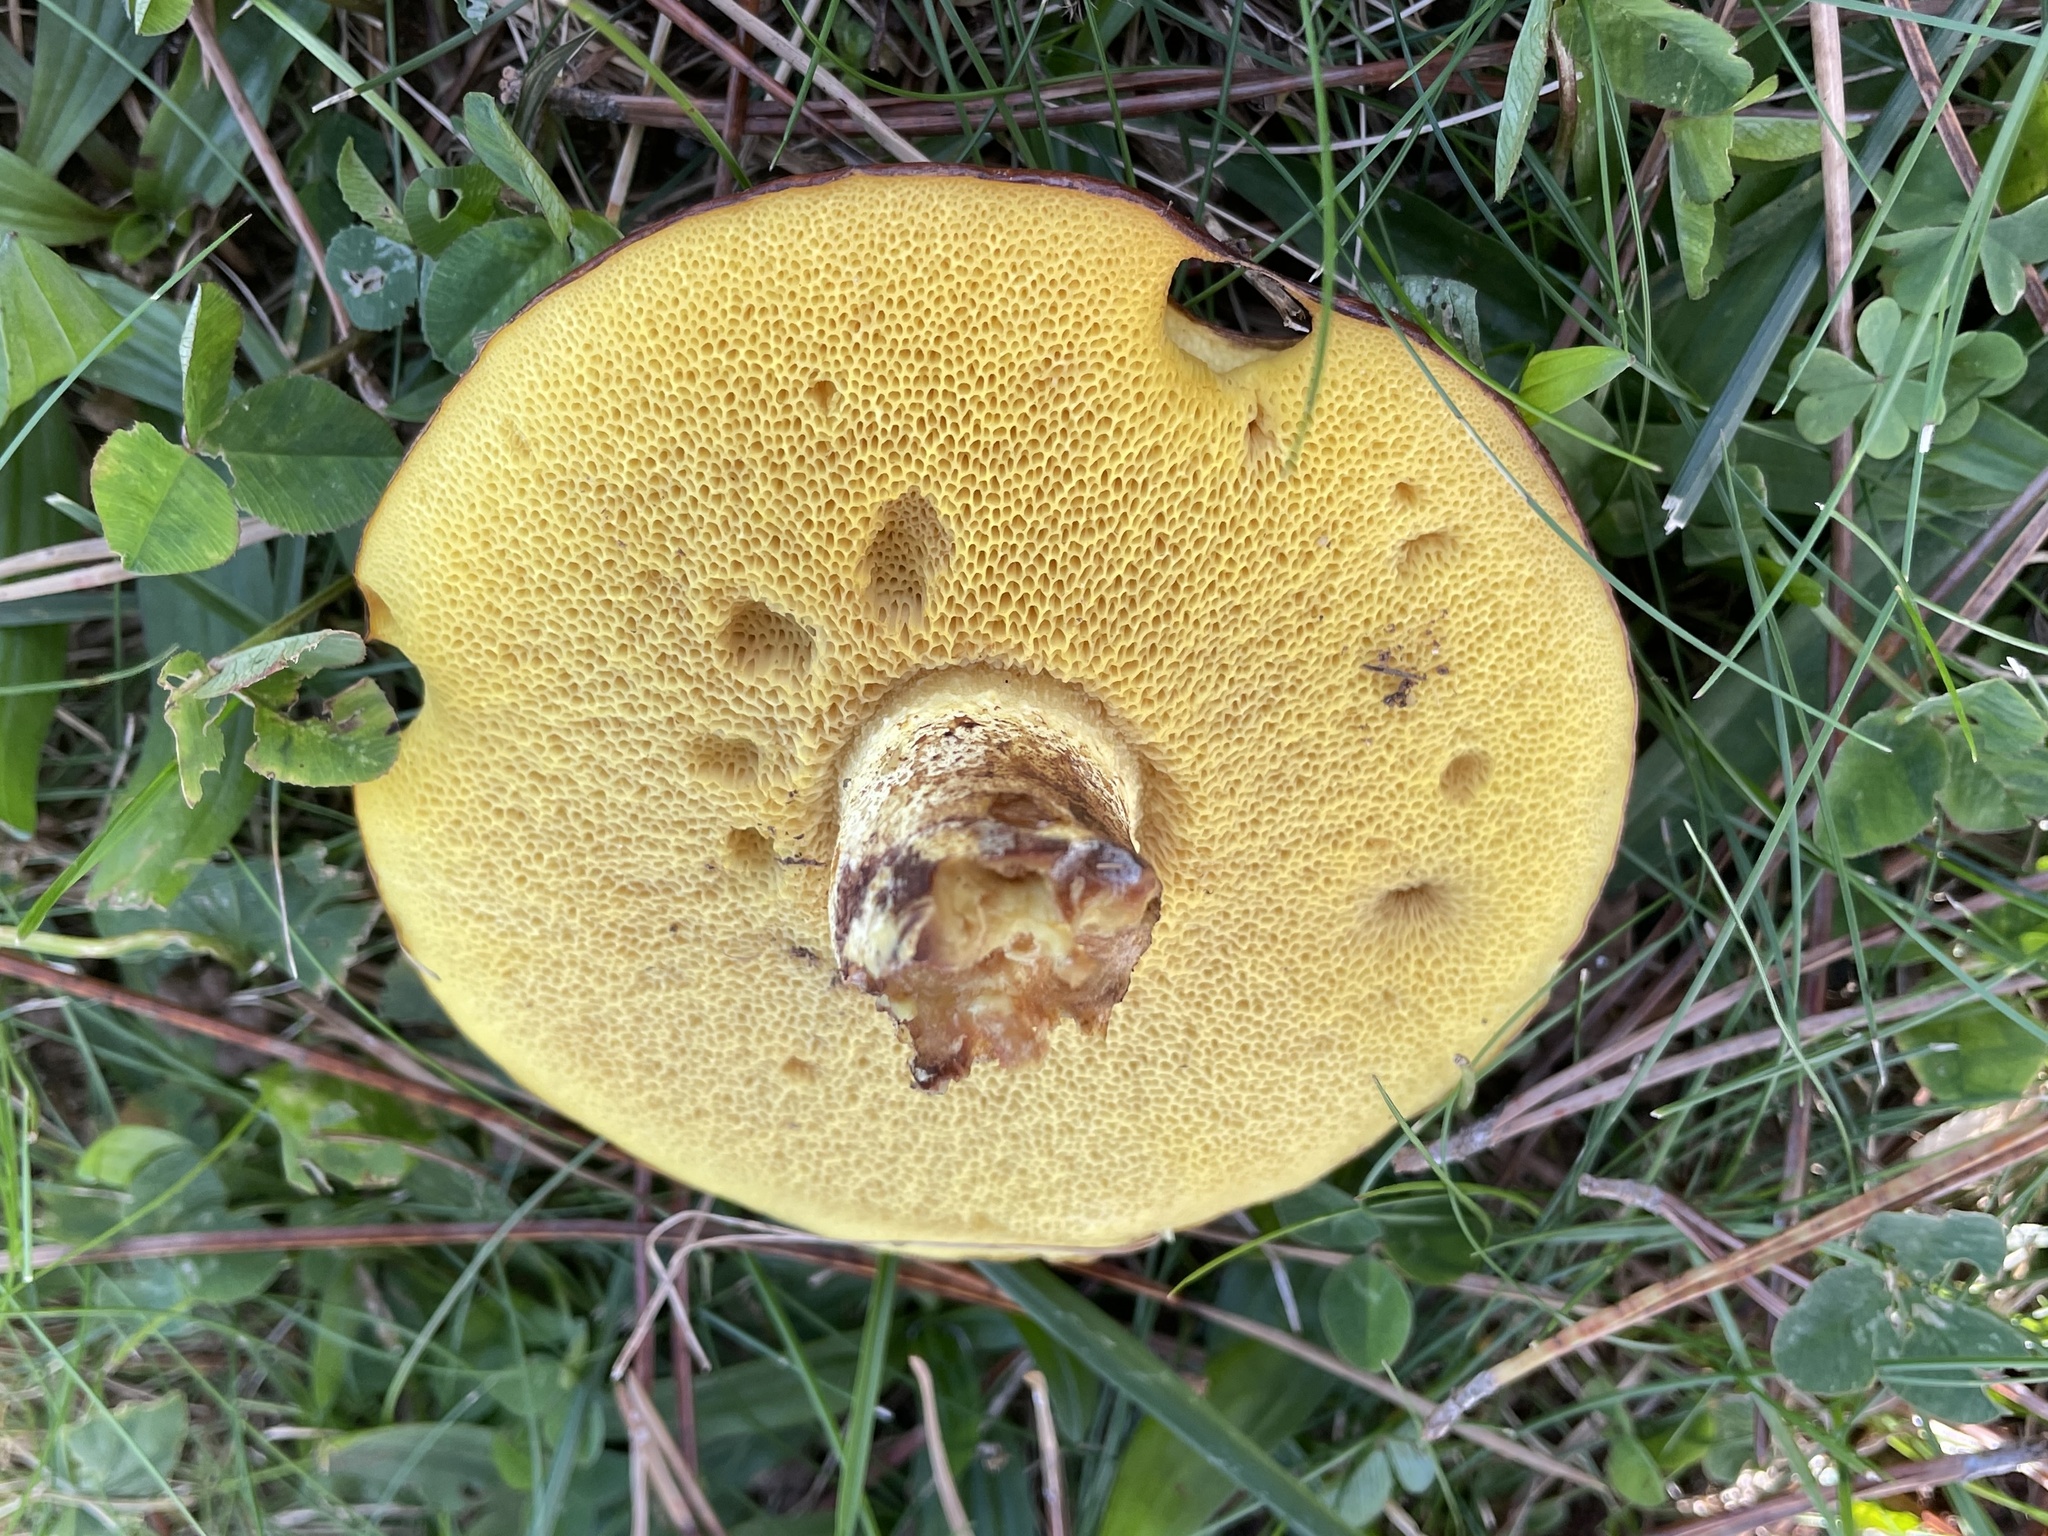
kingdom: Fungi
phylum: Basidiomycota
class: Agaricomycetes
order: Boletales
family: Suillaceae
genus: Suillus
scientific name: Suillus brevipes
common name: Short-stalked suillus
